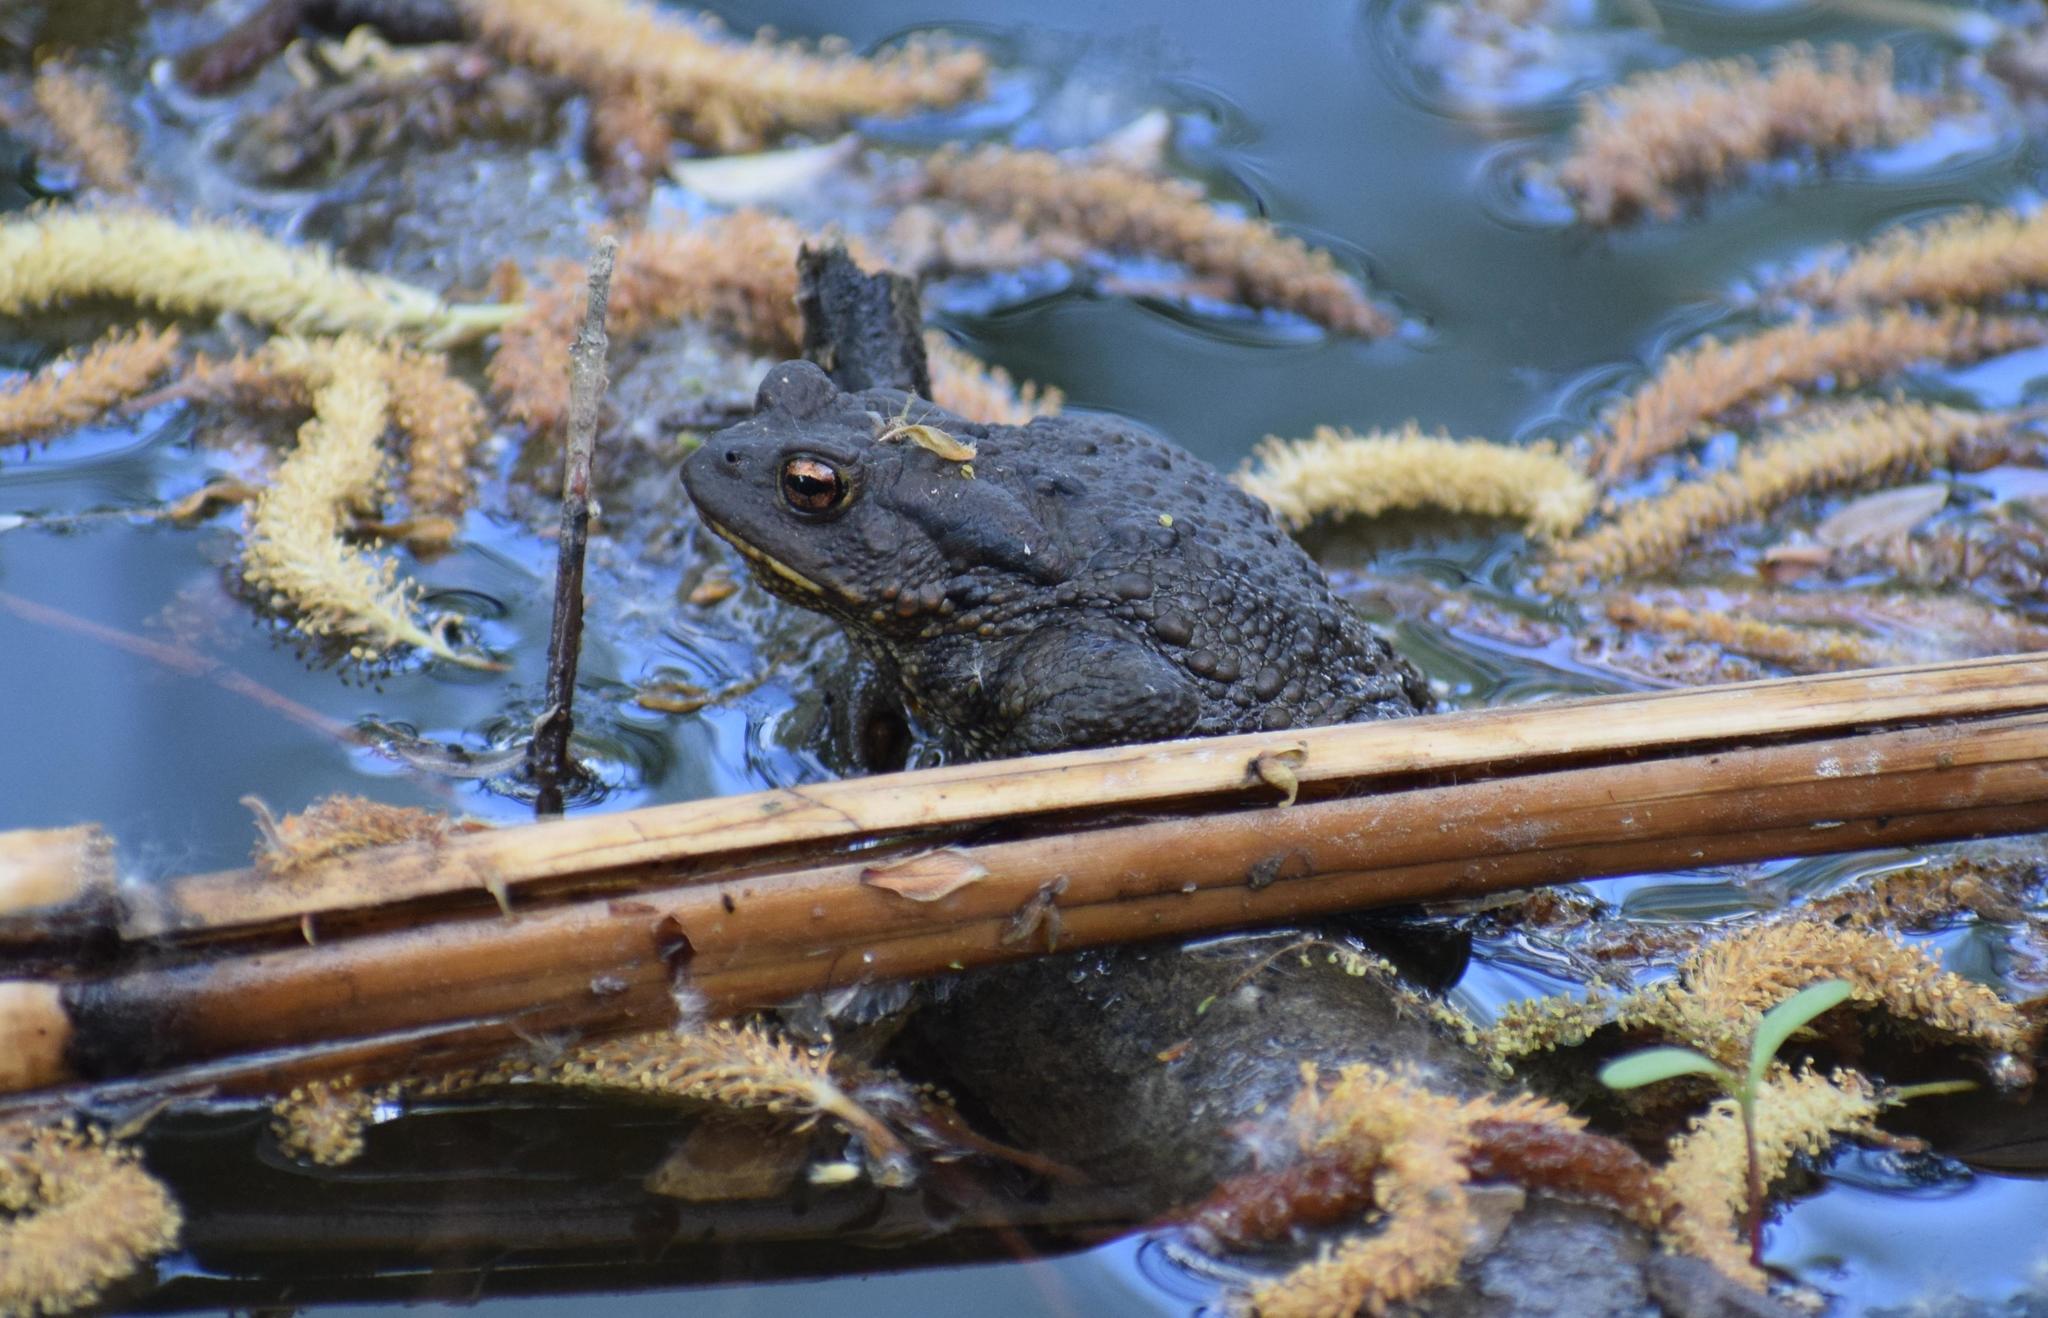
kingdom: Animalia
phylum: Chordata
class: Amphibia
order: Anura
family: Bufonidae
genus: Bufo
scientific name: Bufo bufo
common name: Common toad
